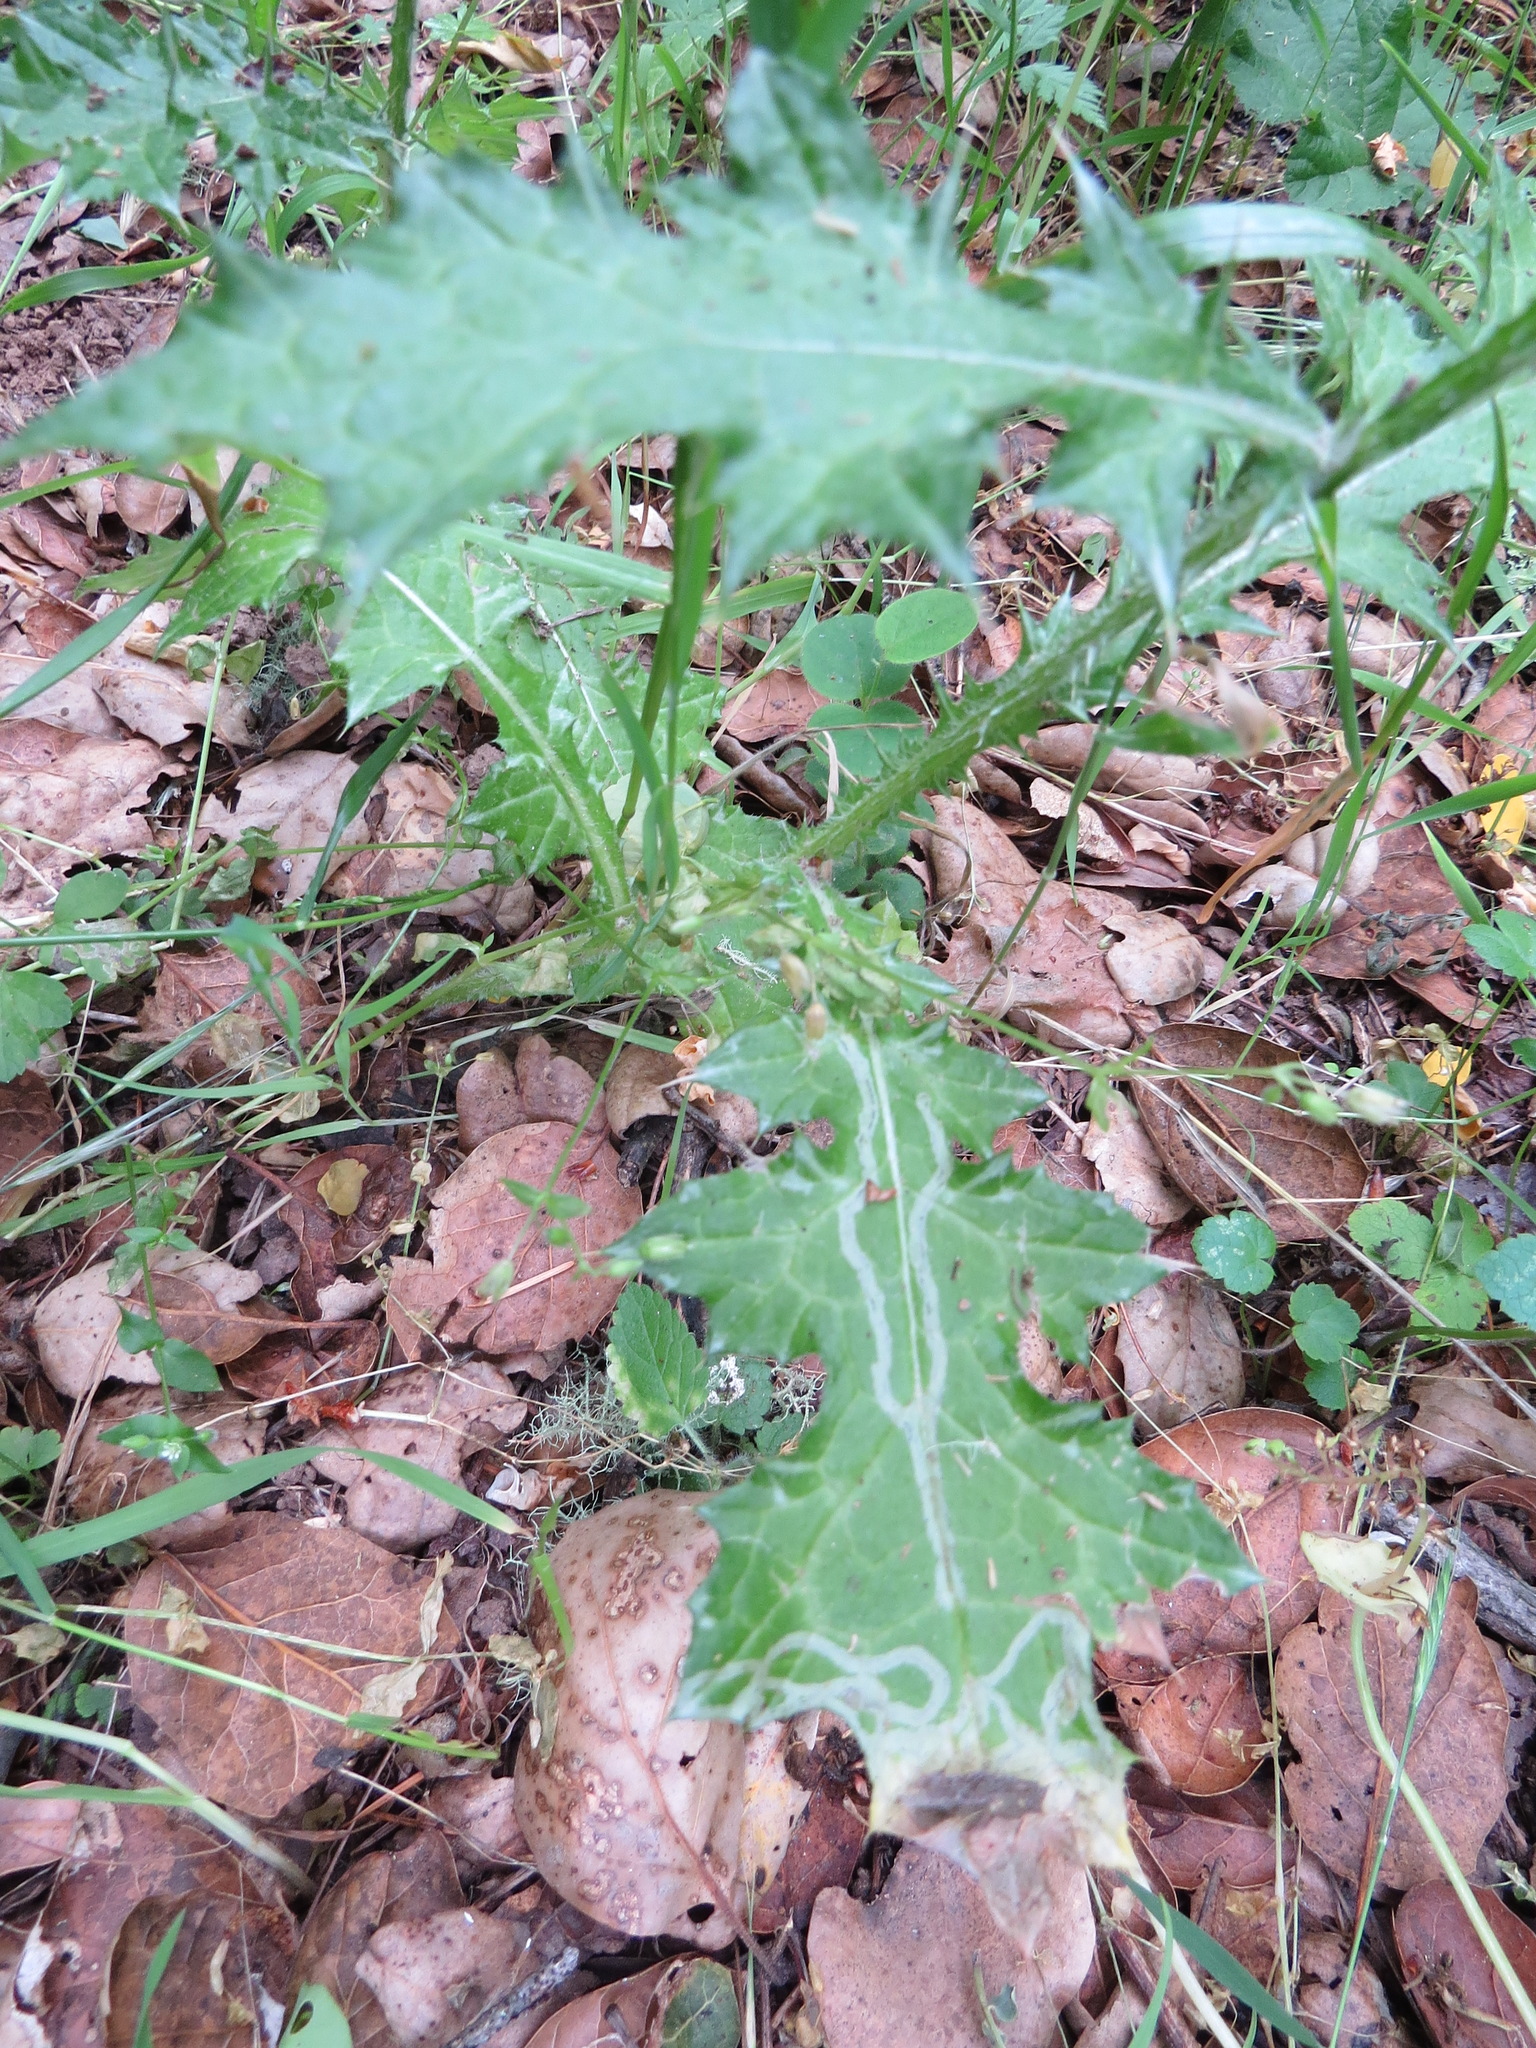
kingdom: Plantae
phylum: Tracheophyta
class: Magnoliopsida
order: Asterales
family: Asteraceae
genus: Carduus
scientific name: Carduus pycnocephalus
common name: Plymouth thistle
